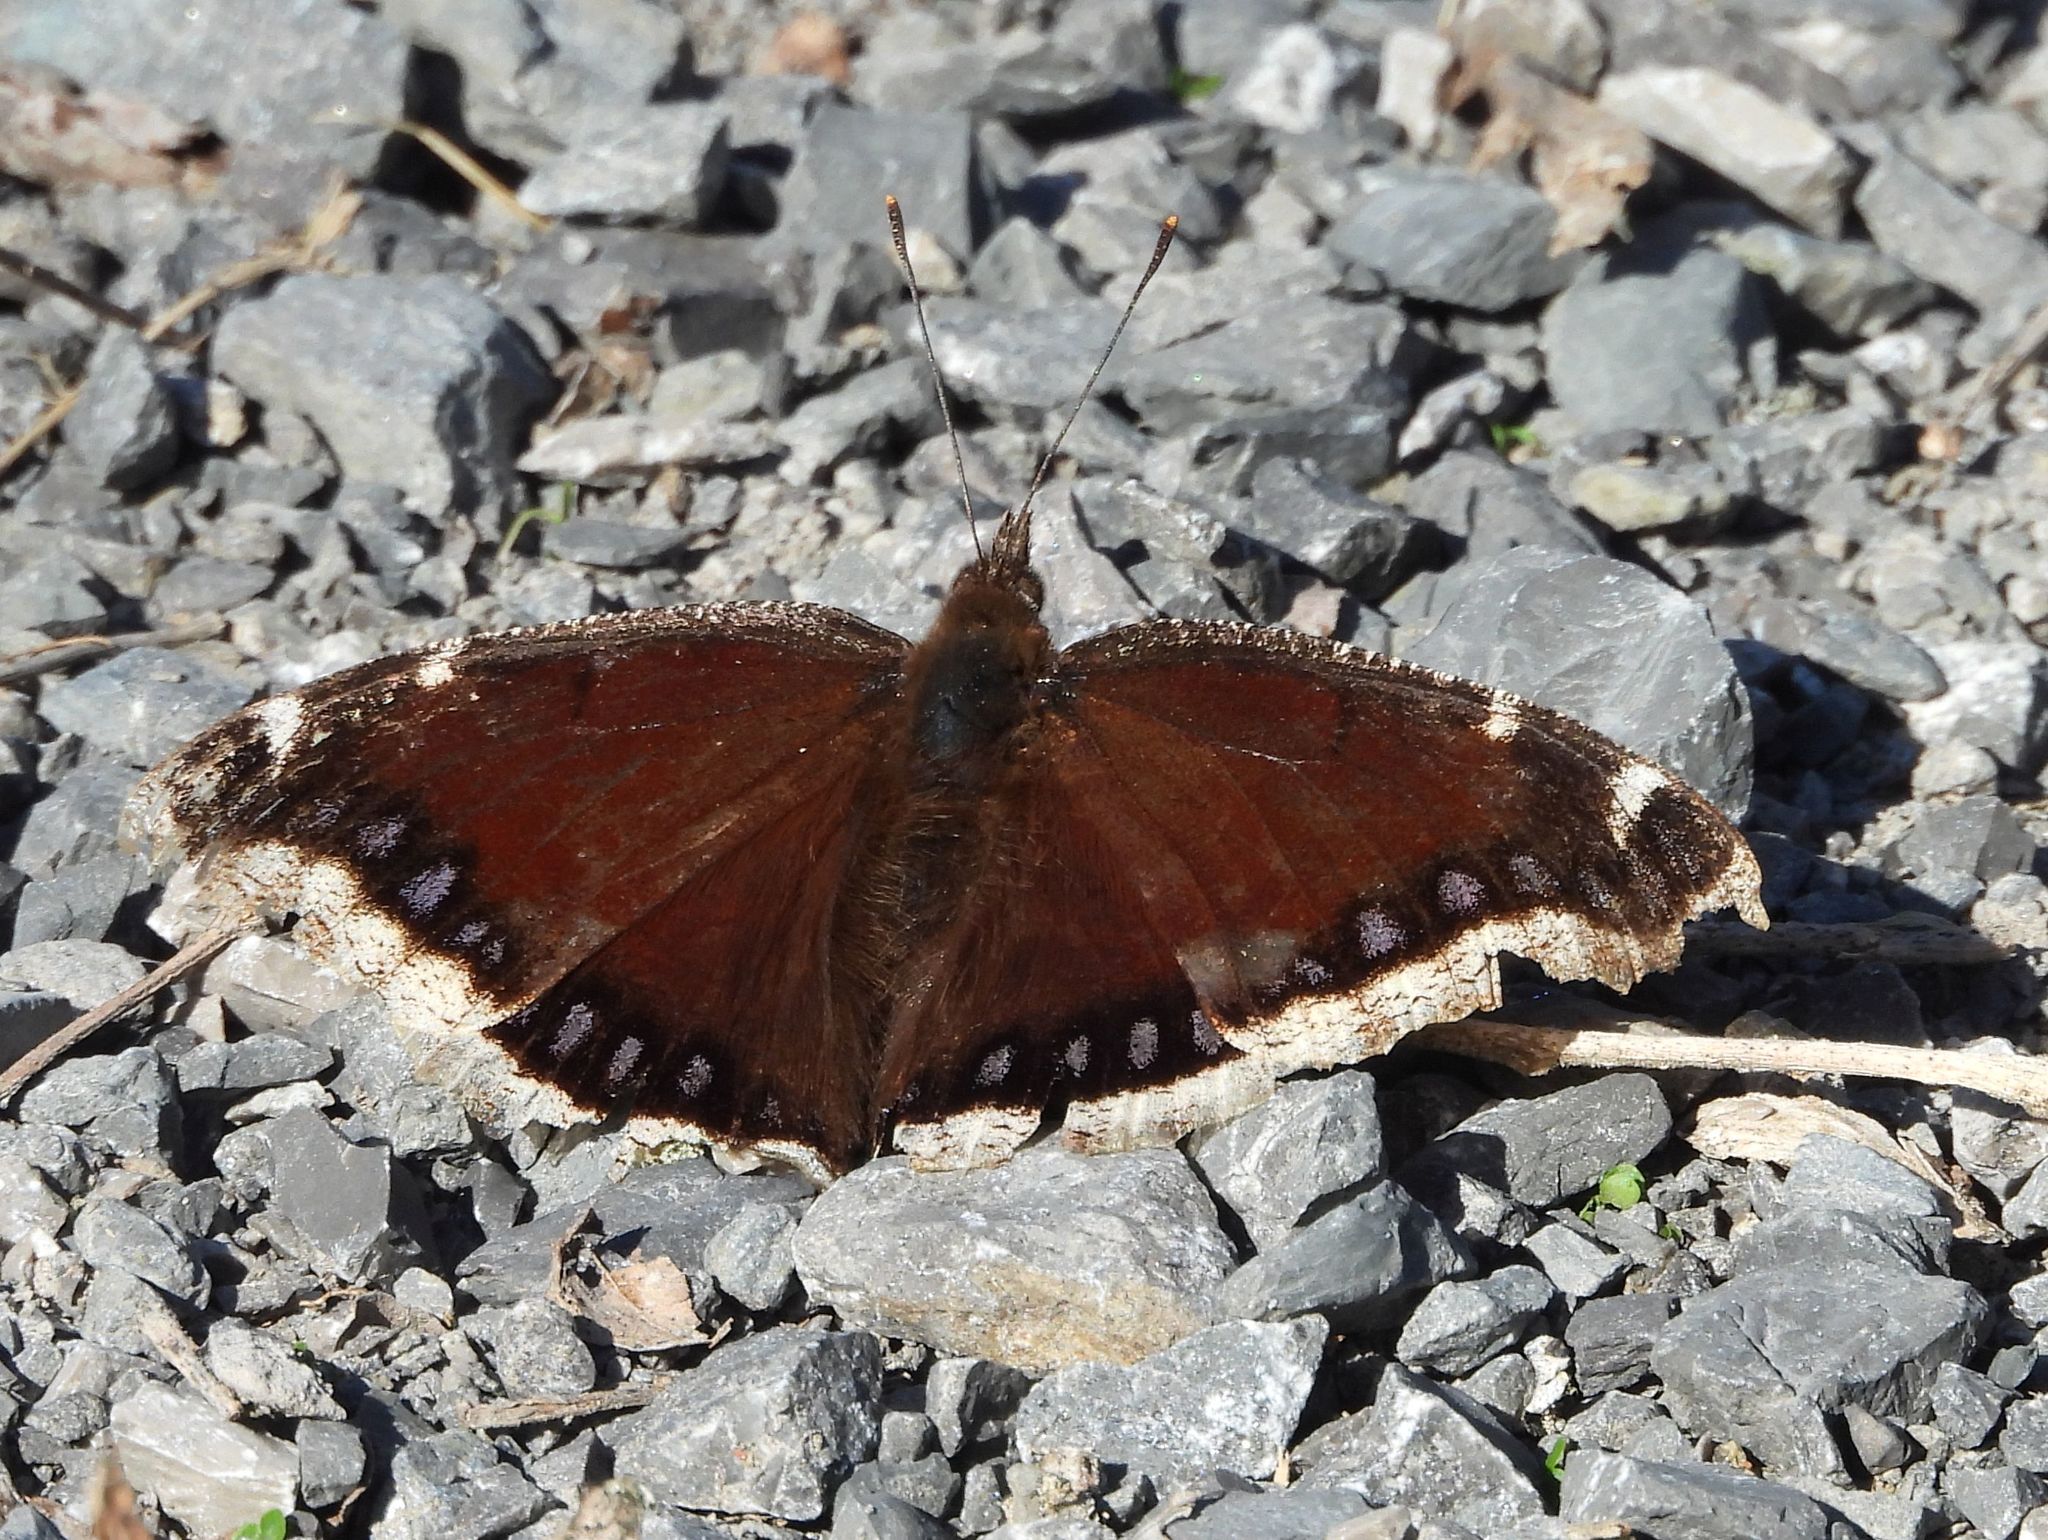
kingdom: Animalia
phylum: Arthropoda
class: Insecta
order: Lepidoptera
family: Nymphalidae
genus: Nymphalis
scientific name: Nymphalis antiopa
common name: Camberwell beauty
